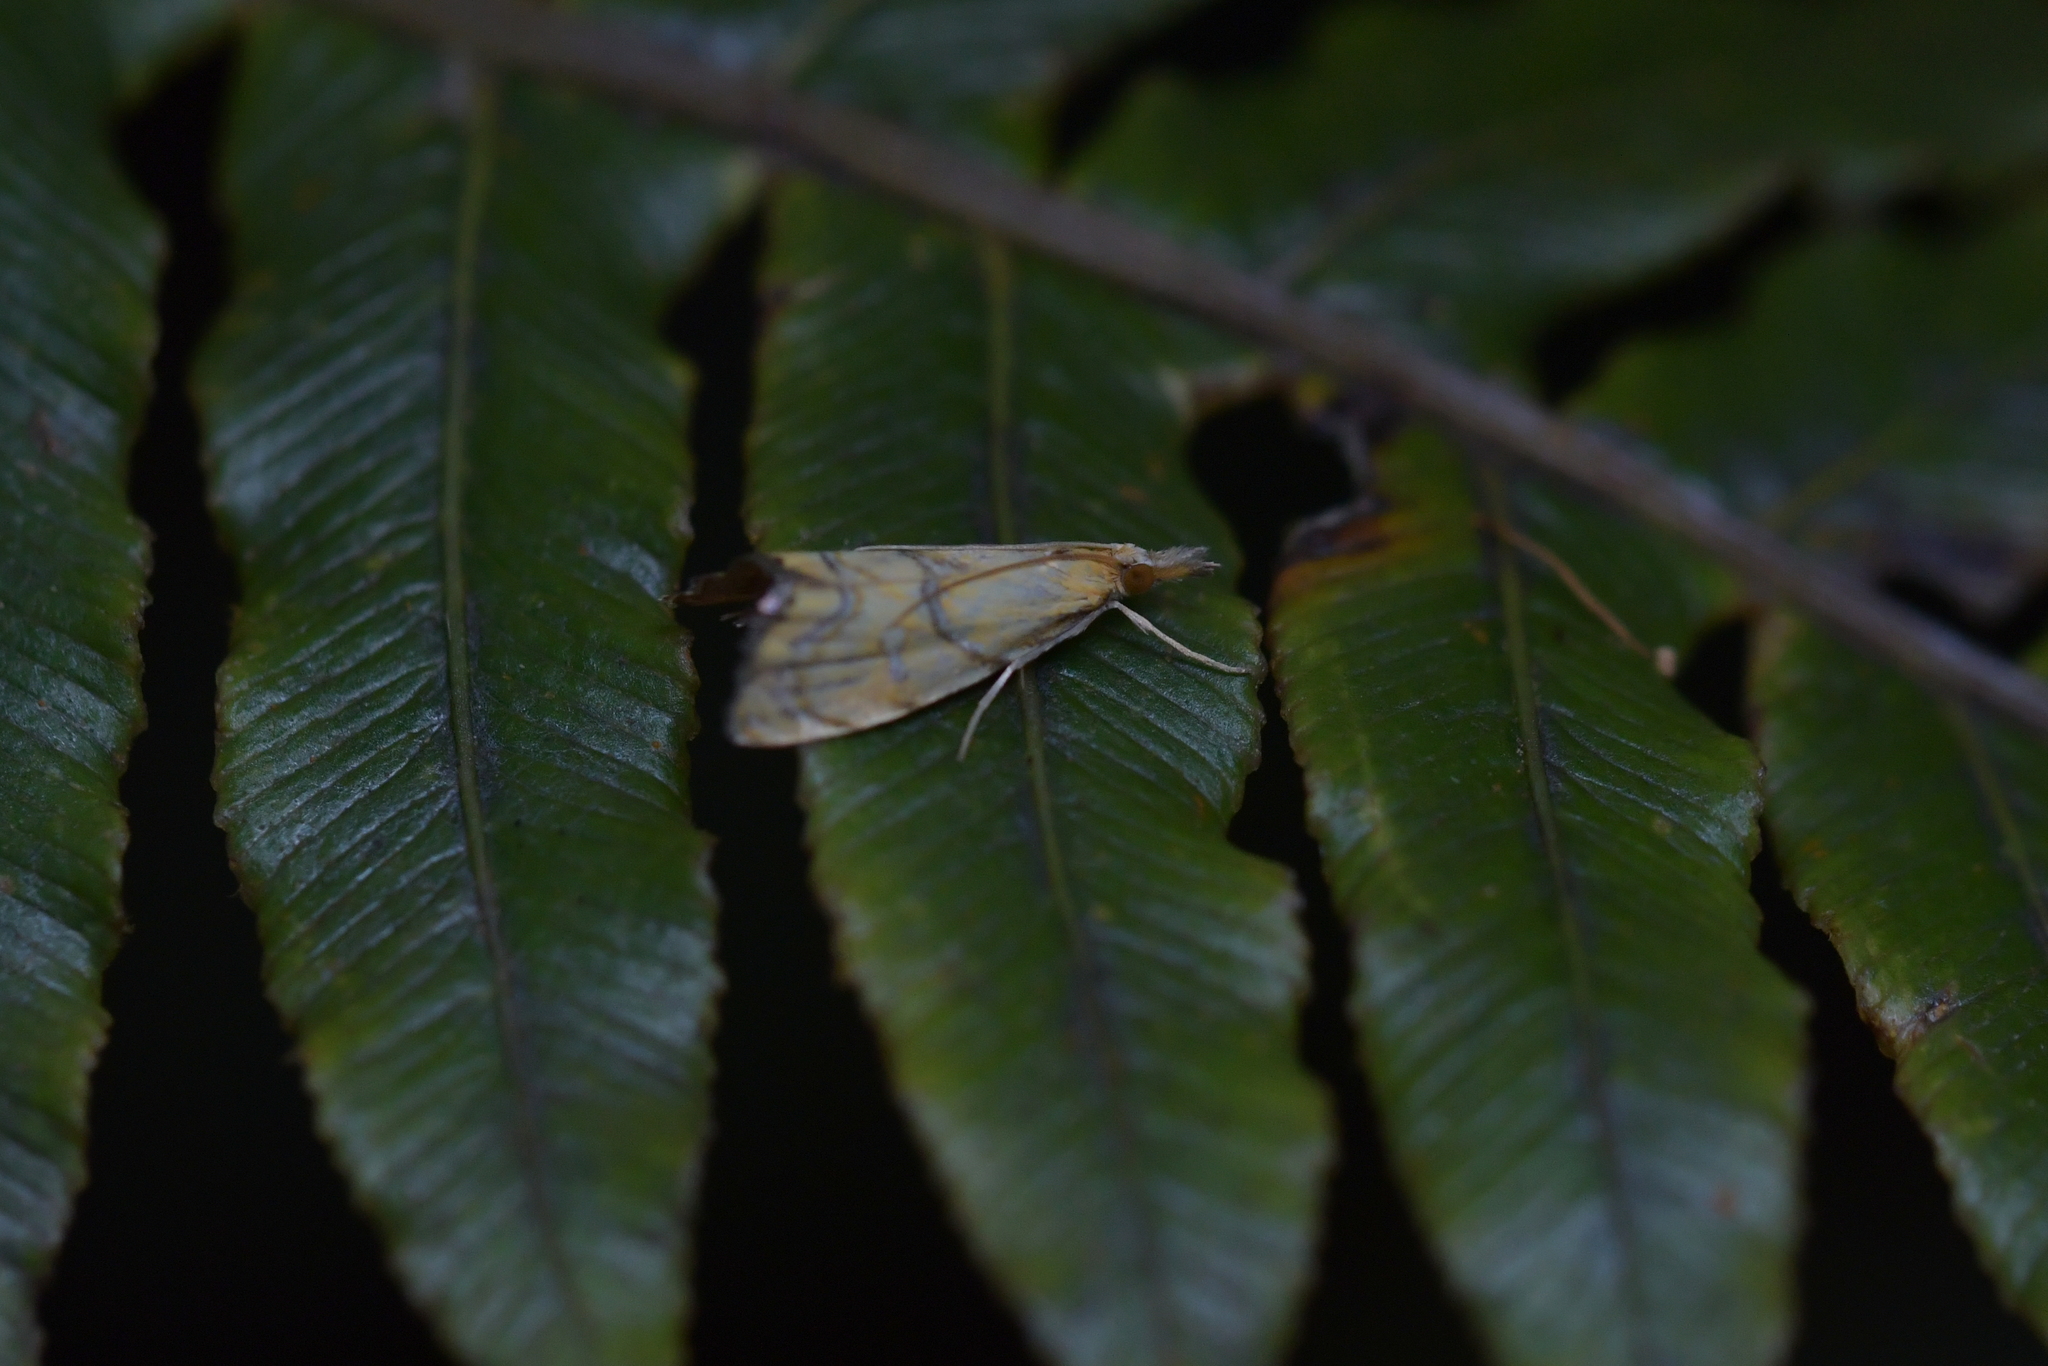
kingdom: Animalia
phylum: Arthropoda
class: Insecta
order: Lepidoptera
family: Crambidae
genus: Glaucocharis
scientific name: Glaucocharis auriscriptella
